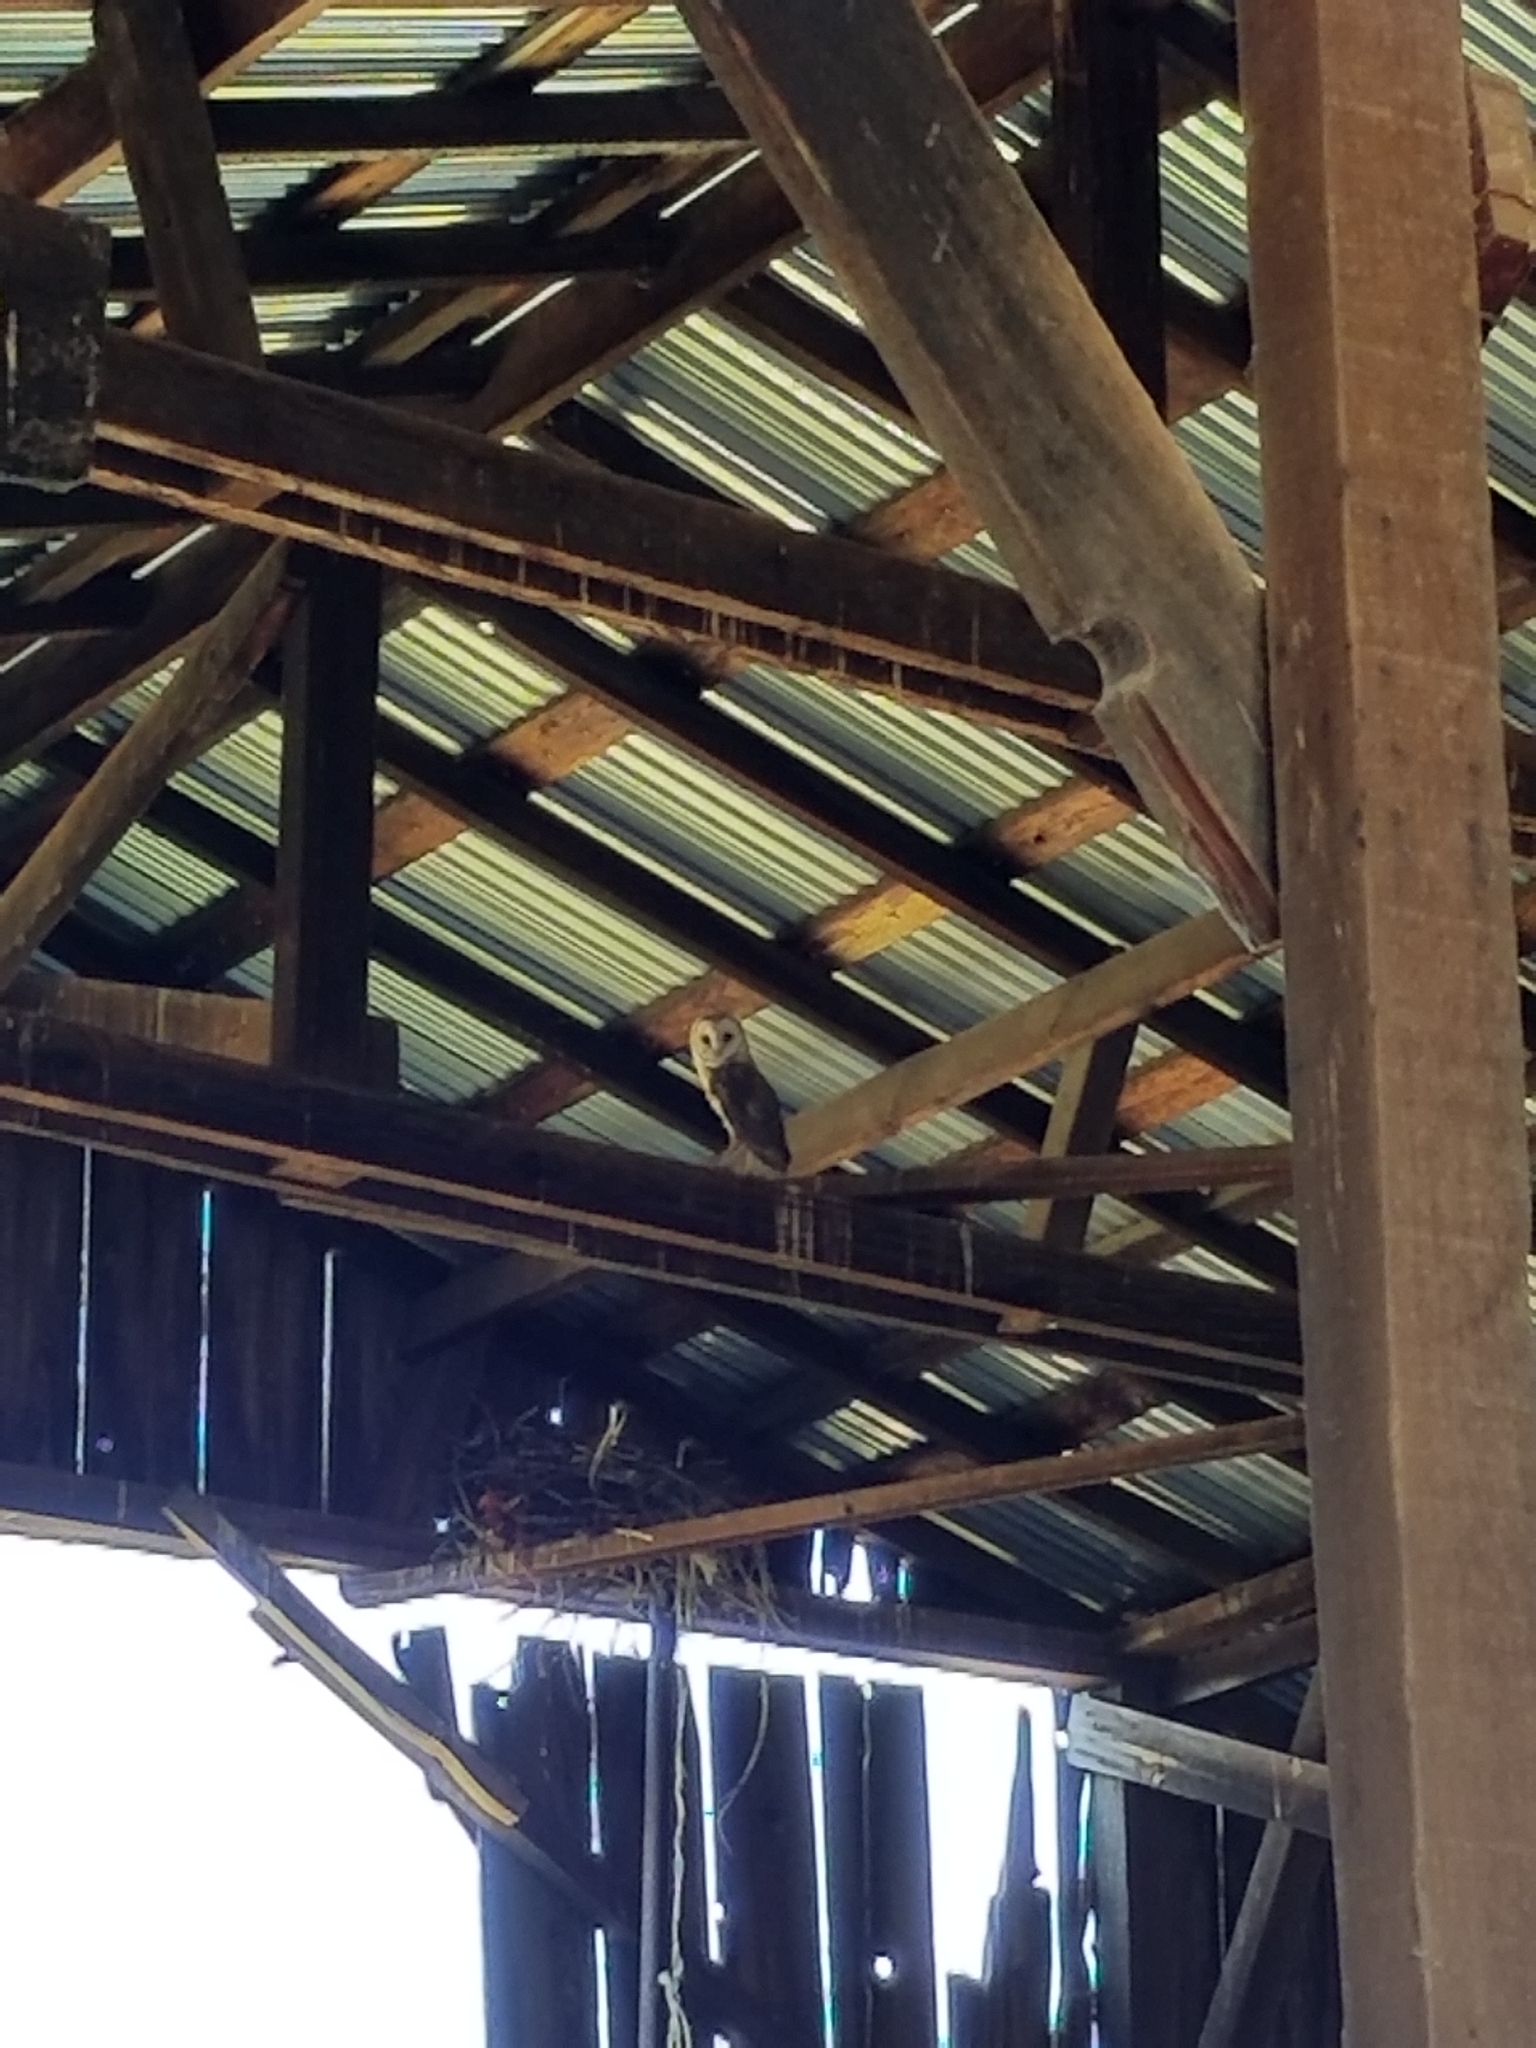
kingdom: Animalia
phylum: Chordata
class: Aves
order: Strigiformes
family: Tytonidae
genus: Tyto
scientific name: Tyto alba
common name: Barn owl
